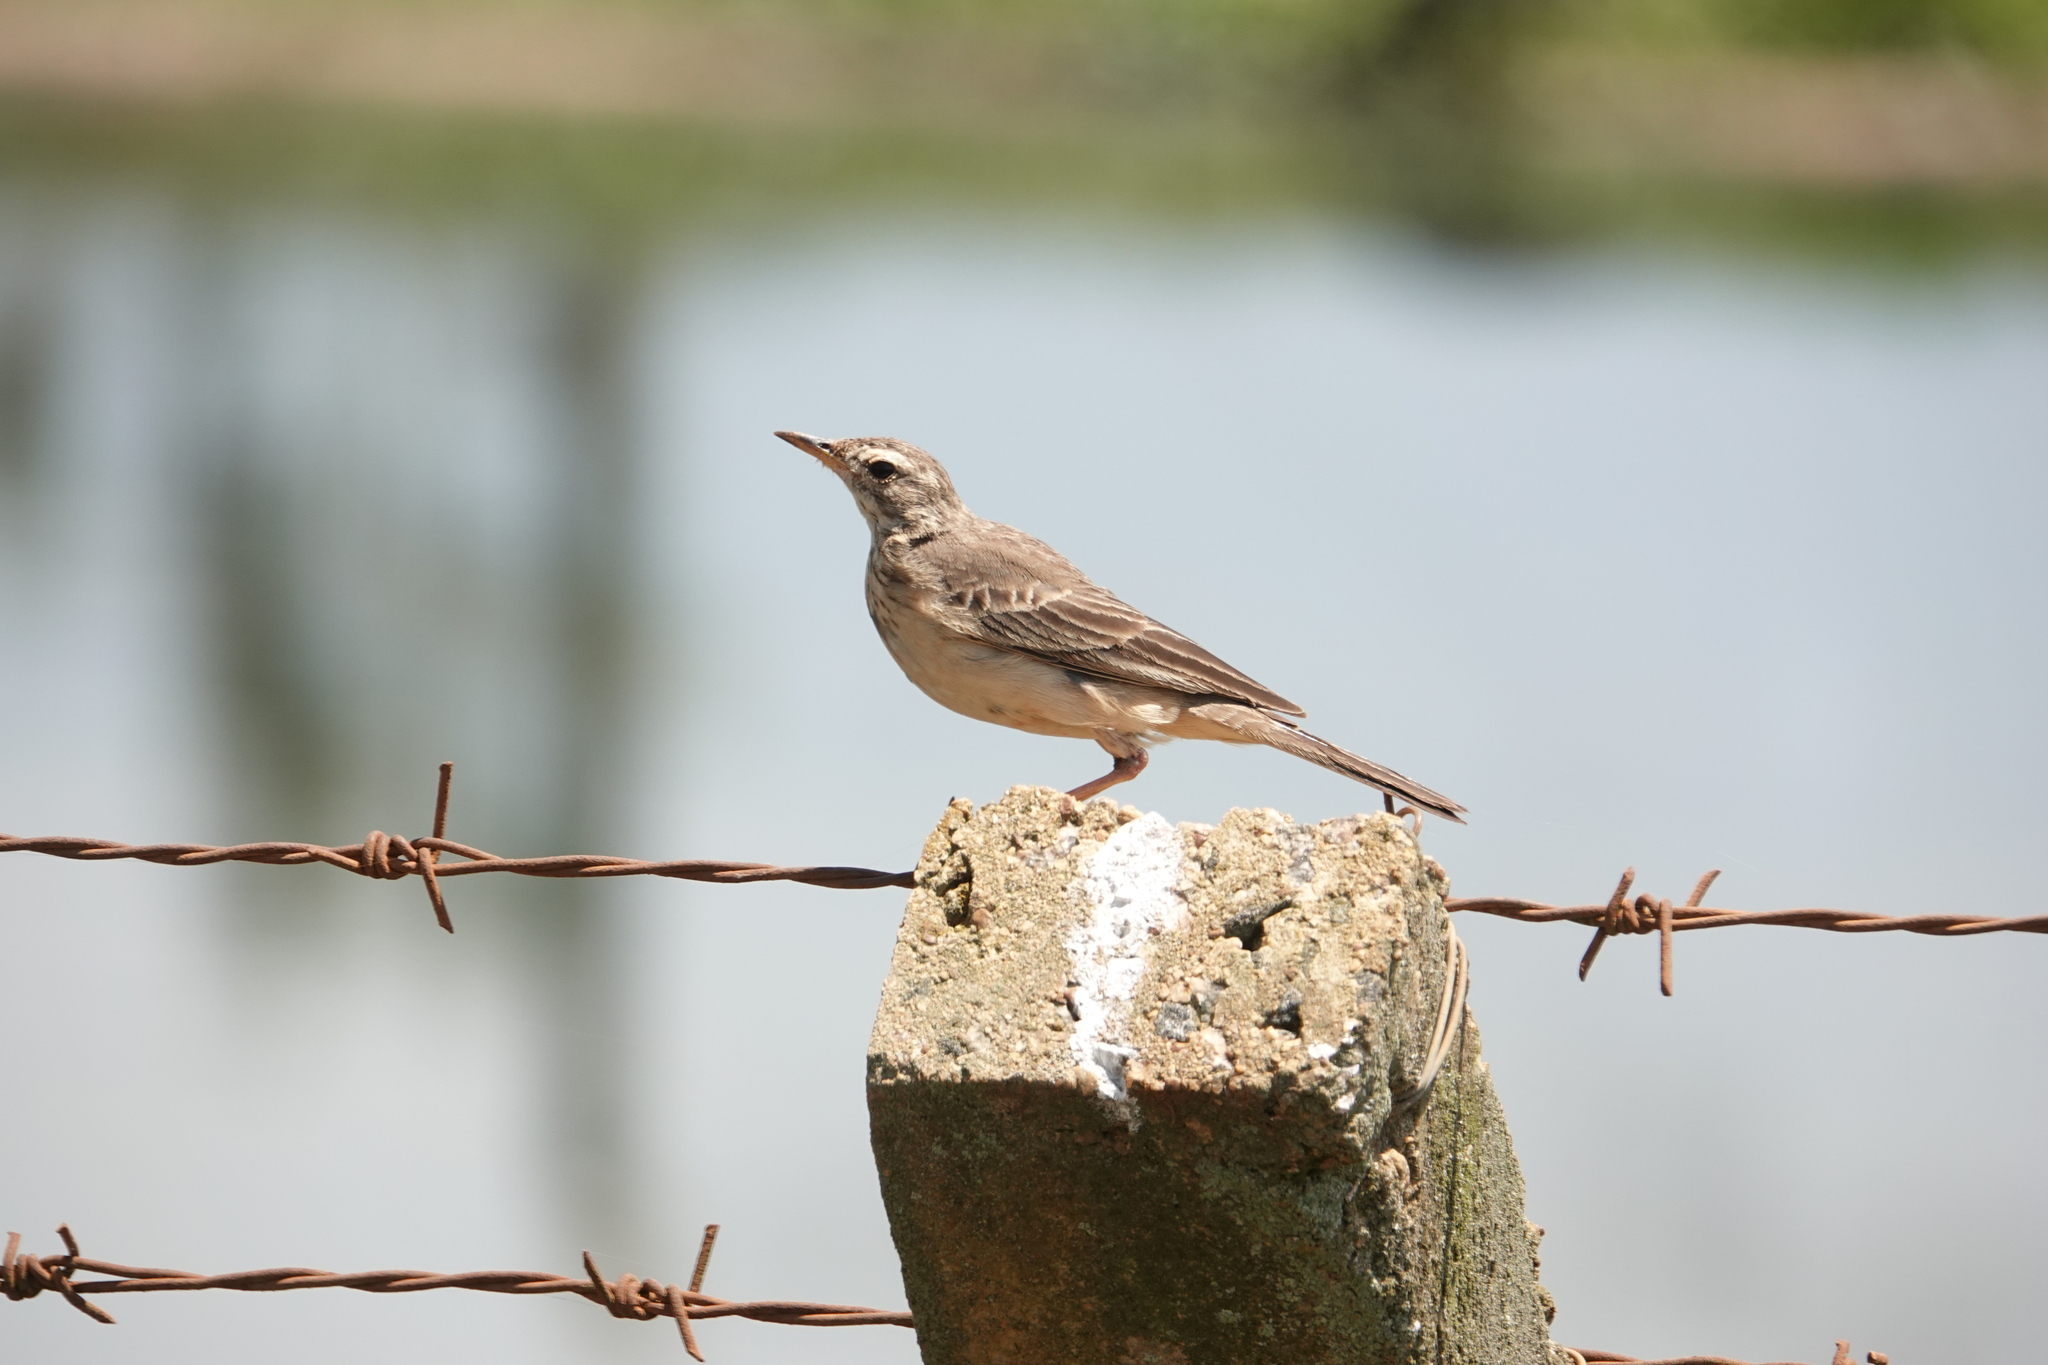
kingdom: Animalia
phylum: Chordata
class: Aves
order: Passeriformes
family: Motacillidae
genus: Anthus
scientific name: Anthus leucophrys
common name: Plain-backed pipit
